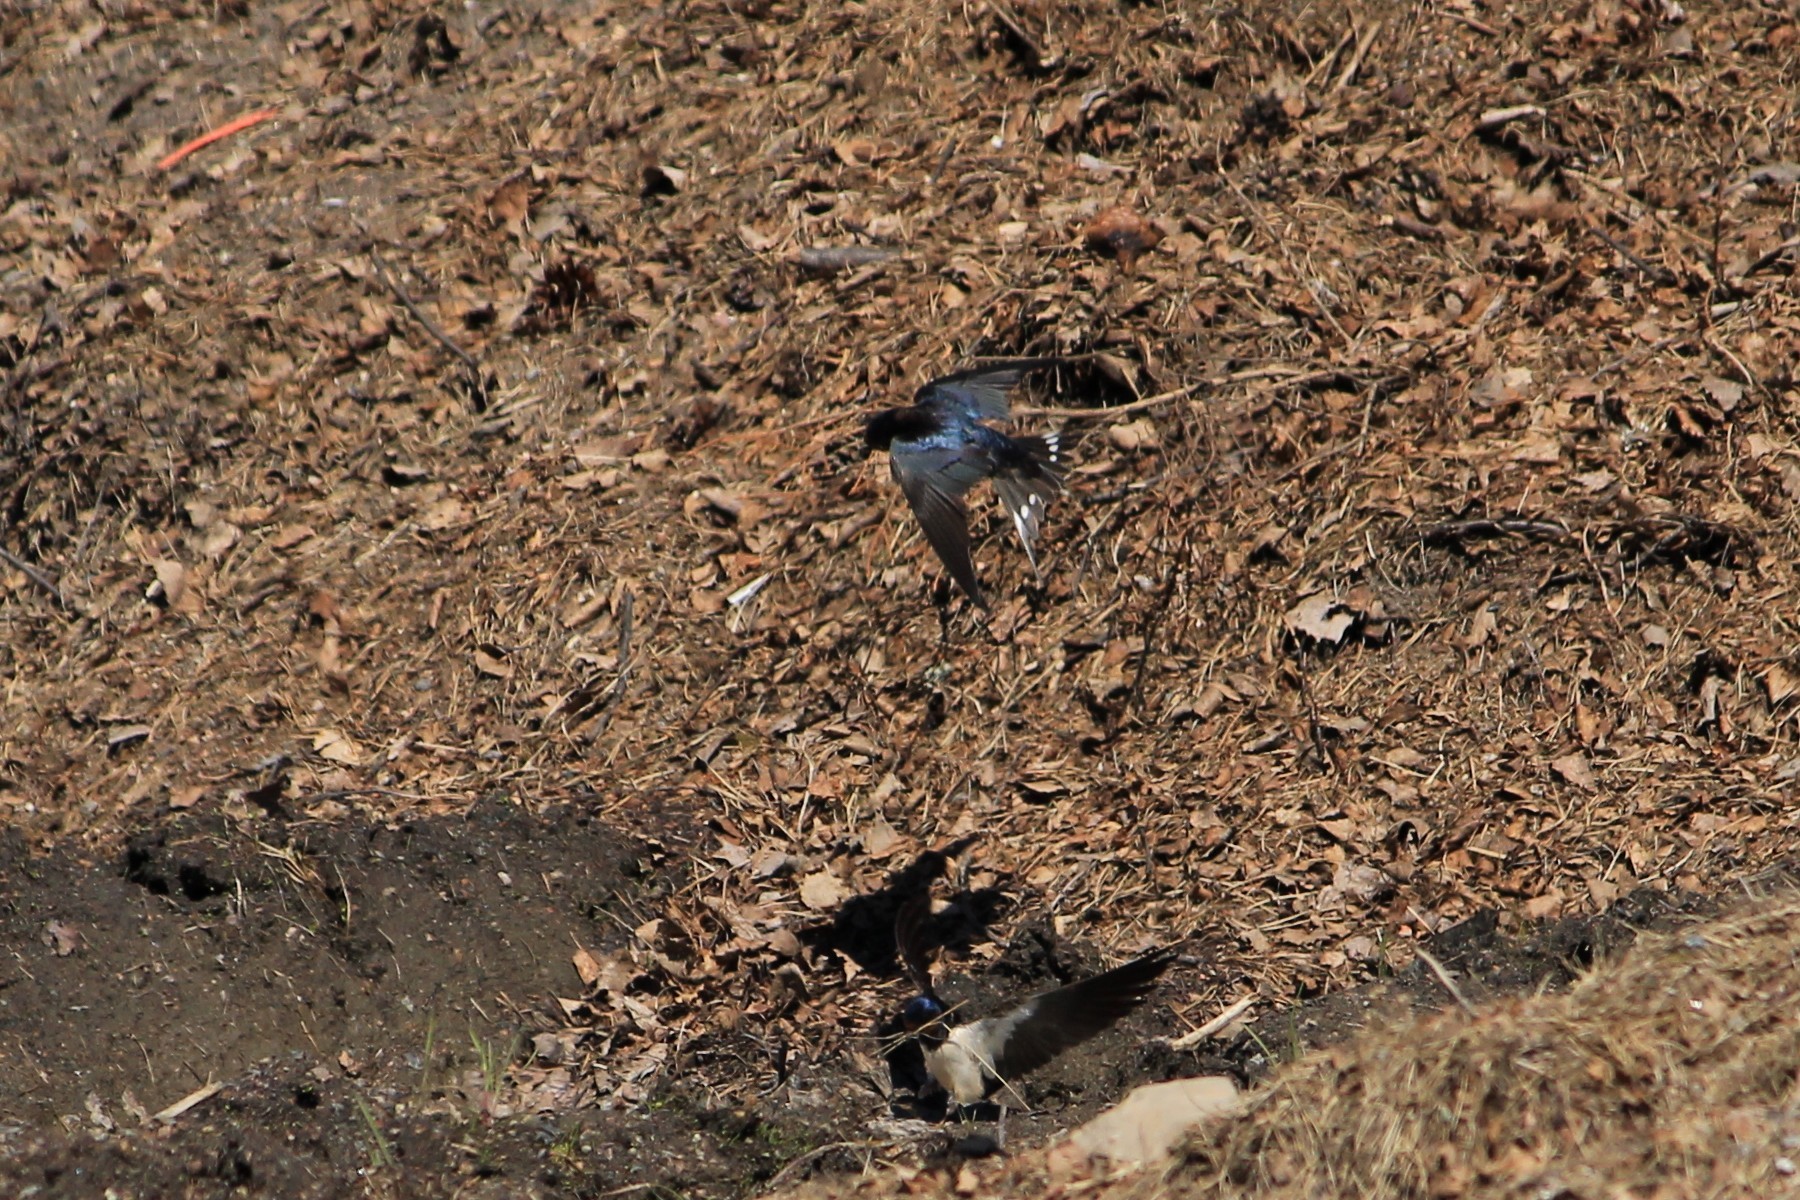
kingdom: Animalia
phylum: Chordata
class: Aves
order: Passeriformes
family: Hirundinidae
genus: Hirundo
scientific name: Hirundo rustica
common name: Barn swallow
